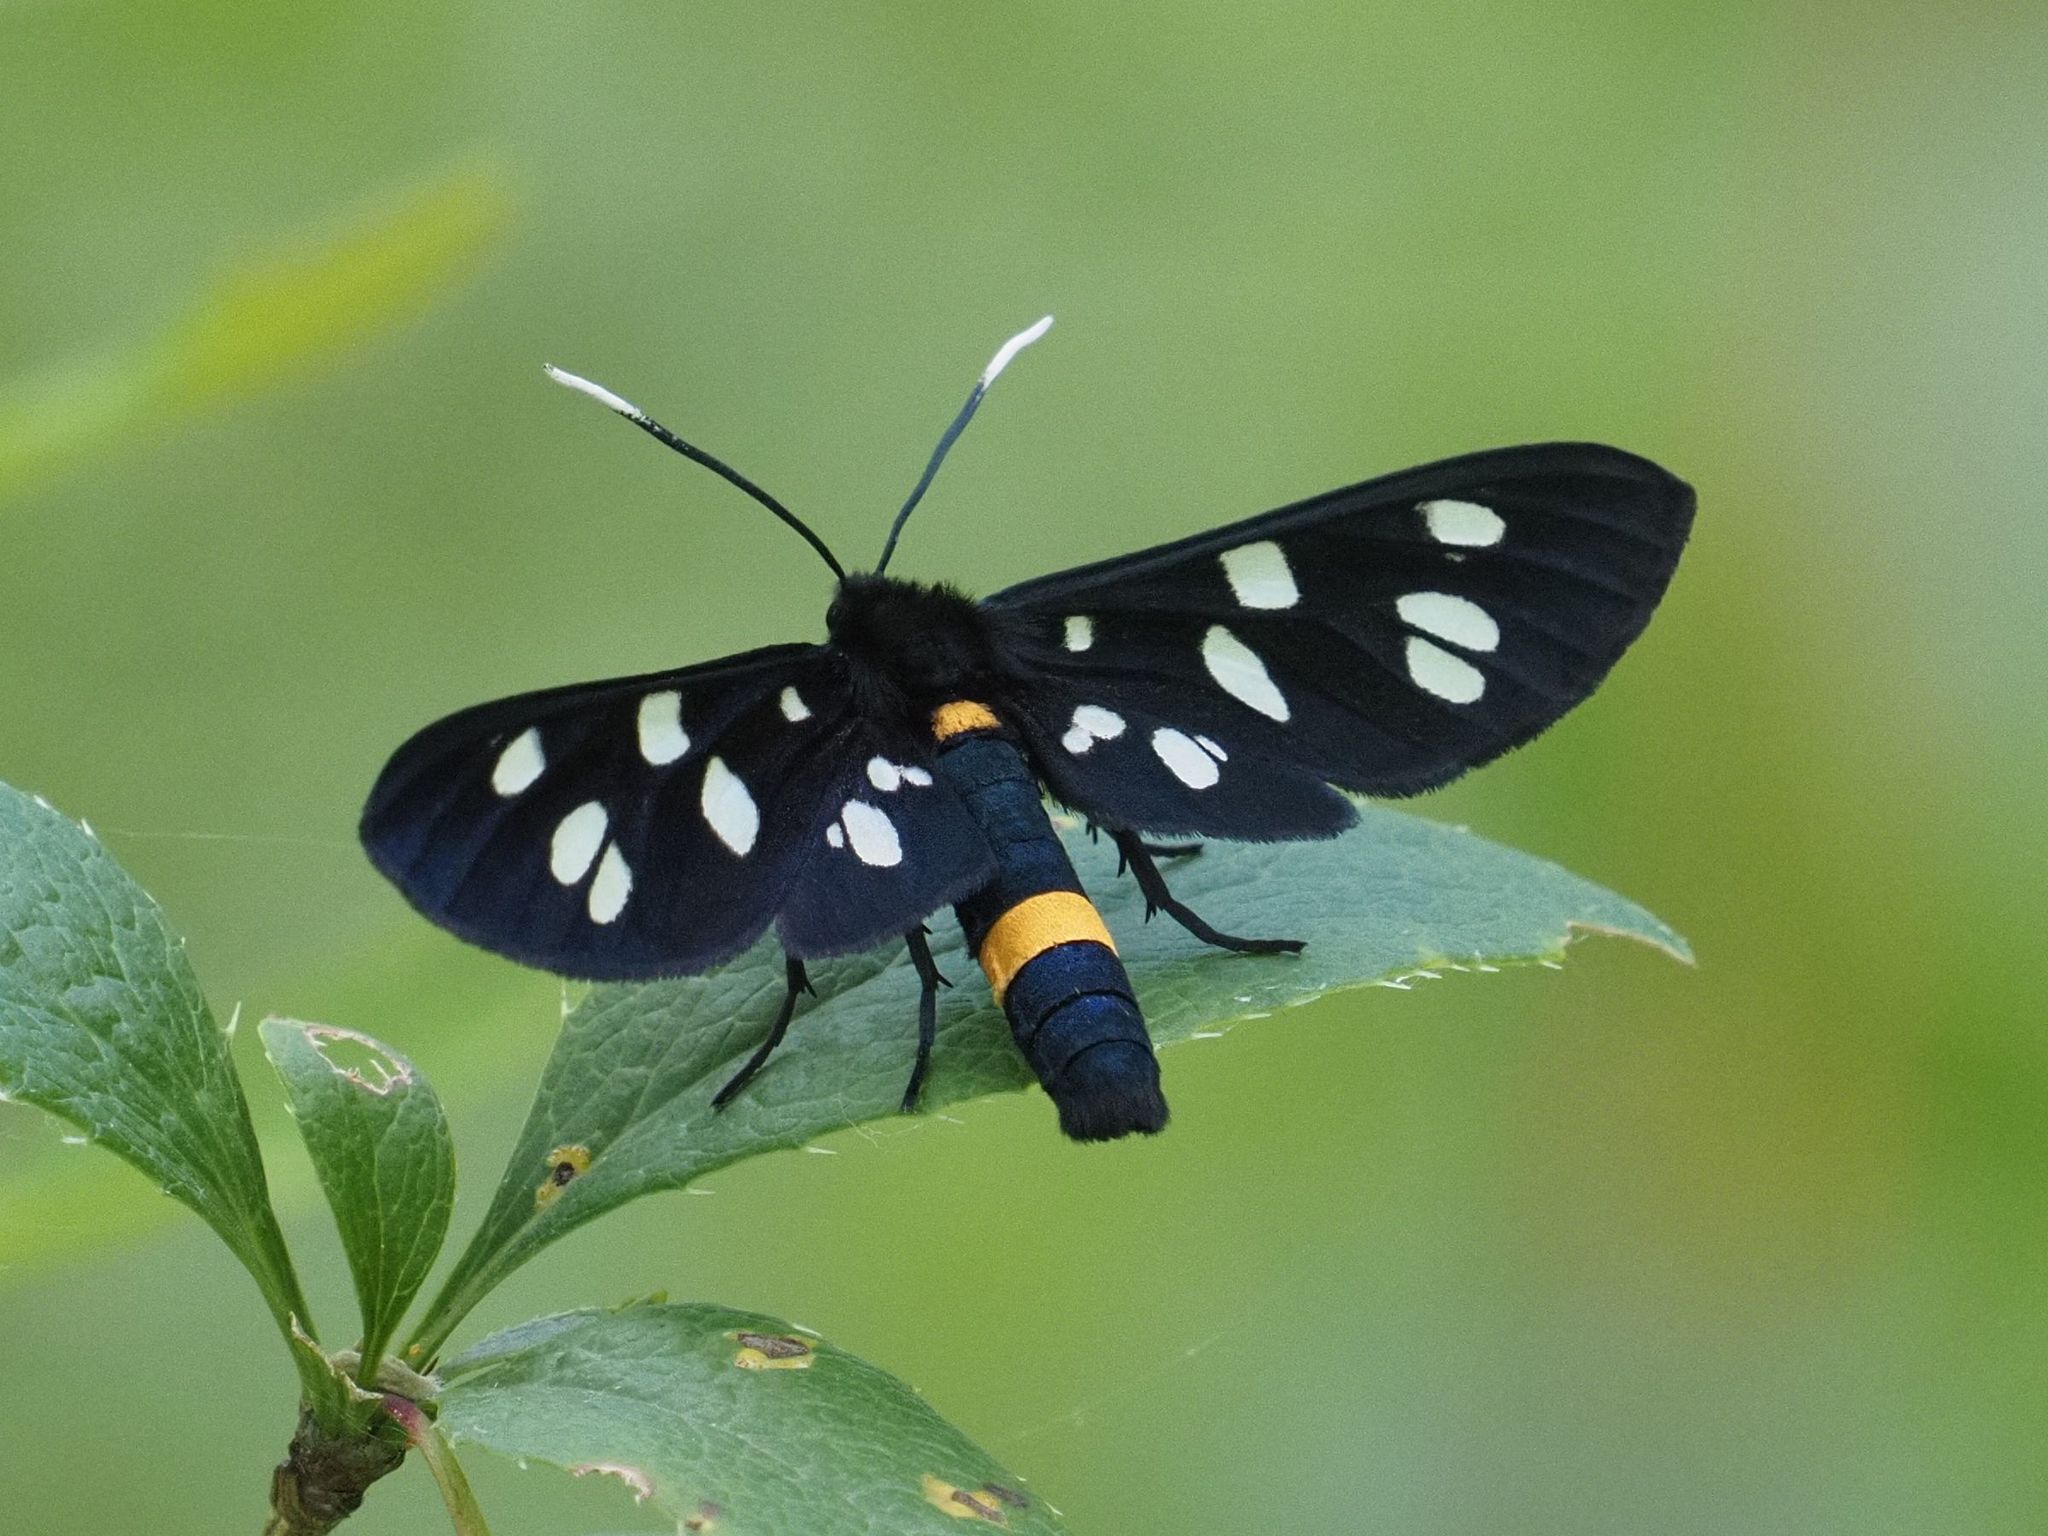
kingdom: Animalia
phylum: Arthropoda
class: Insecta
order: Lepidoptera
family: Erebidae
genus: Amata
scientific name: Amata phegea
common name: Nine-spotted
